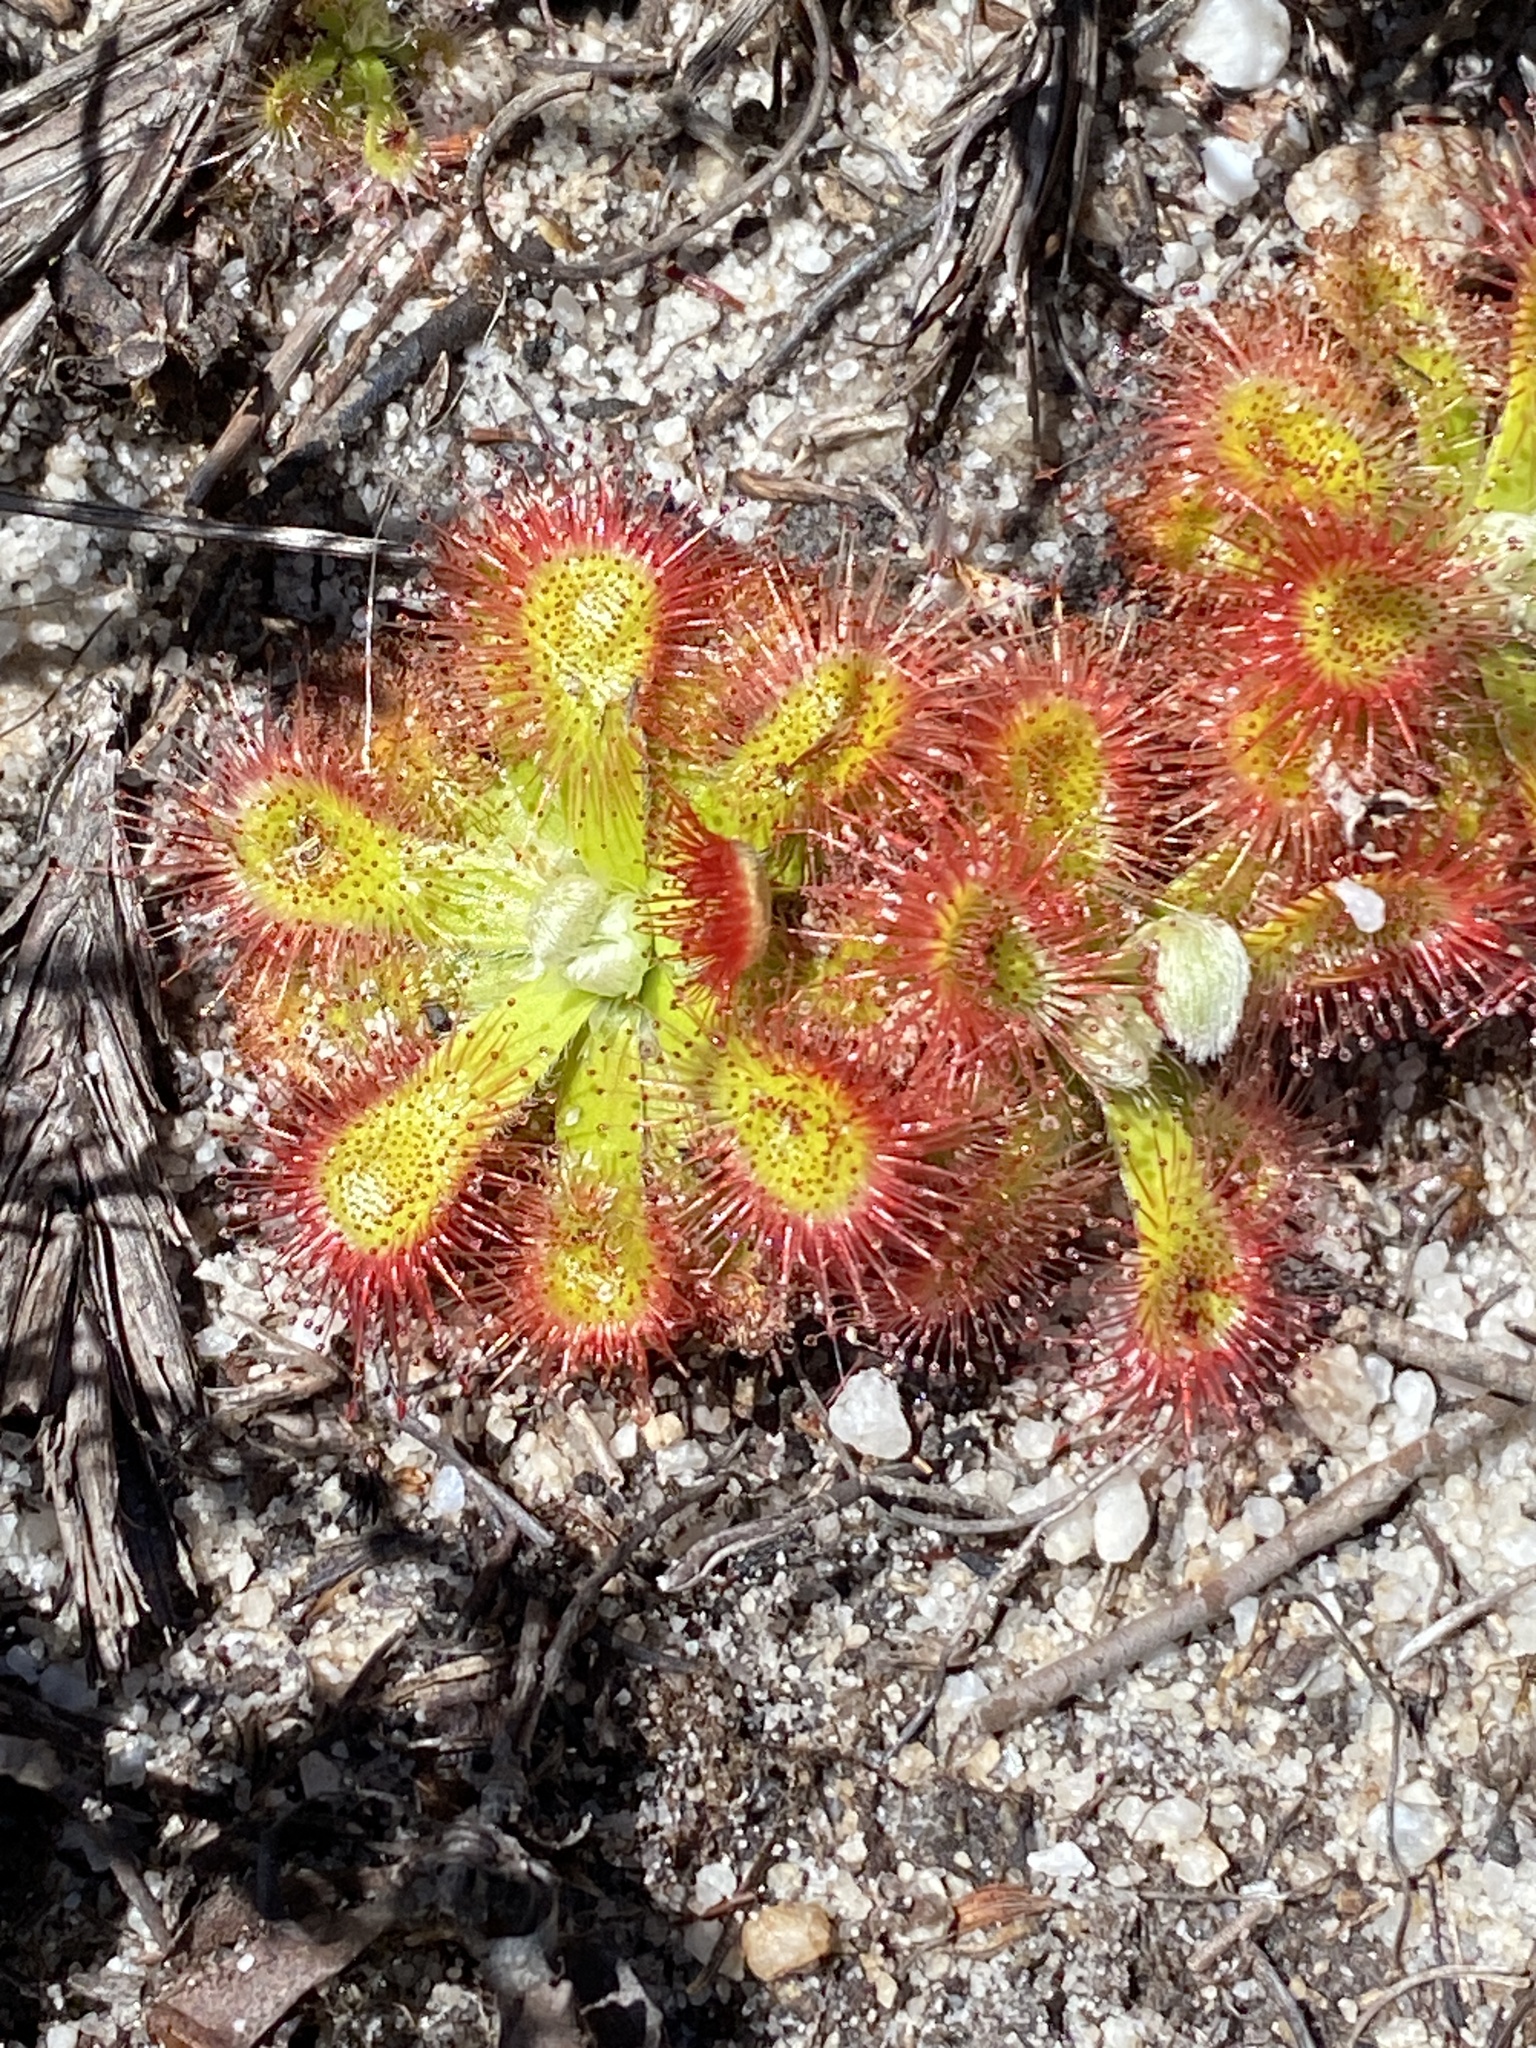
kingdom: Plantae
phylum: Tracheophyta
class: Magnoliopsida
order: Caryophyllales
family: Droseraceae
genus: Drosera
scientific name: Drosera aliciae
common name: Alice sundew
